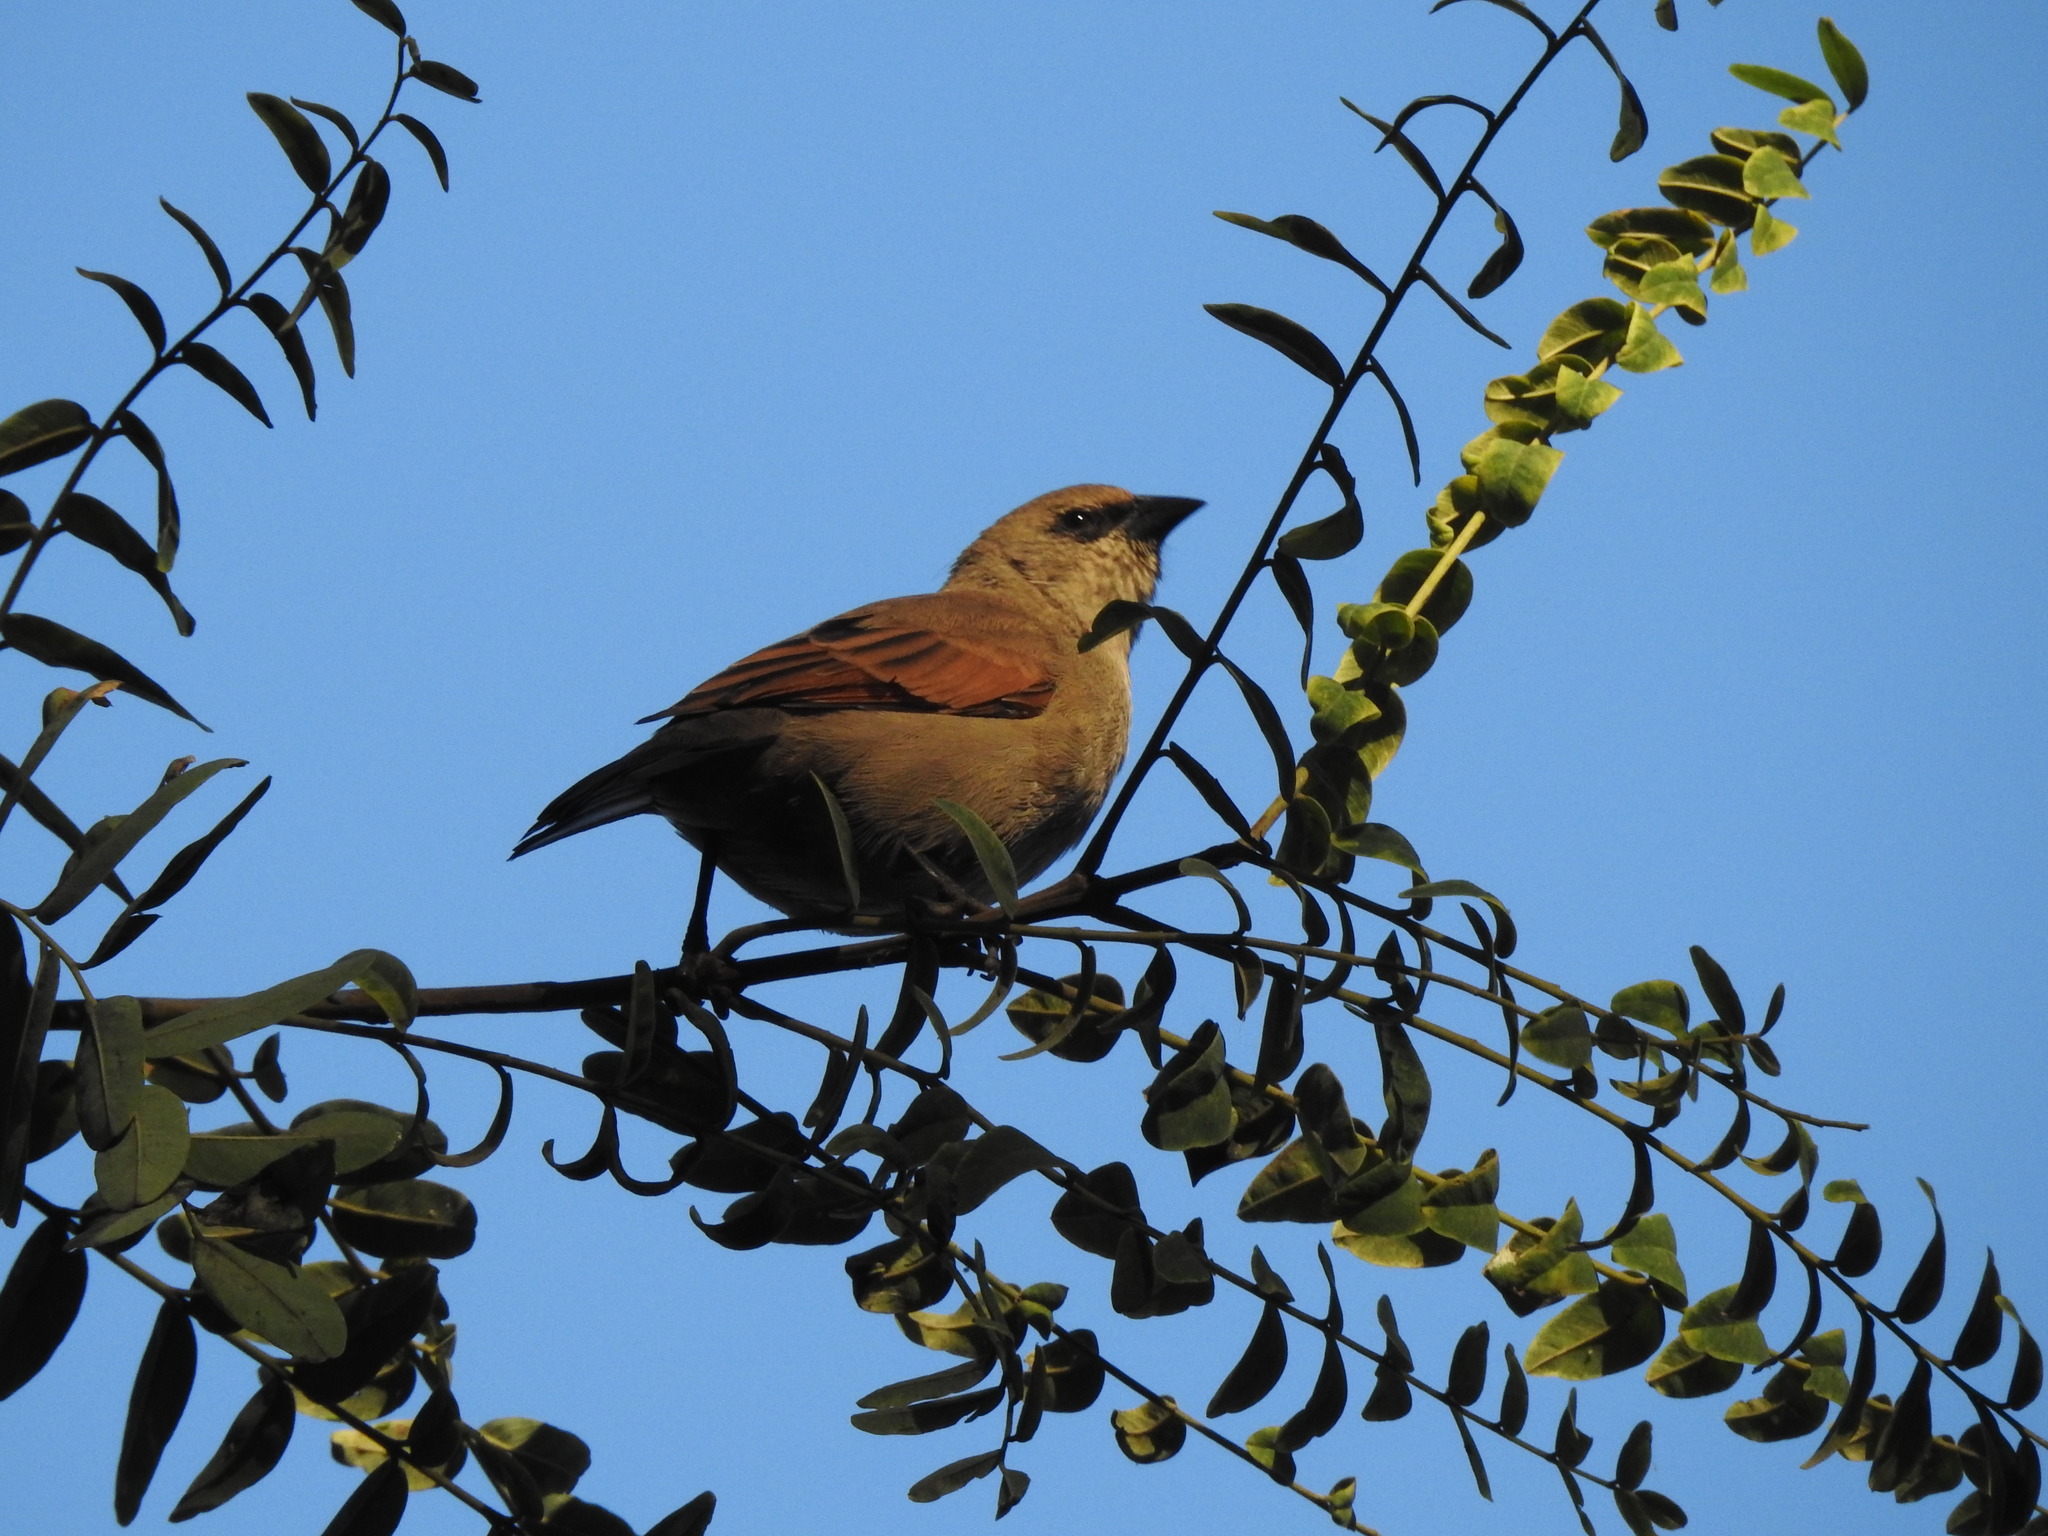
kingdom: Animalia
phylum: Chordata
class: Aves
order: Passeriformes
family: Icteridae
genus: Agelaioides
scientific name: Agelaioides badius
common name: Baywing
